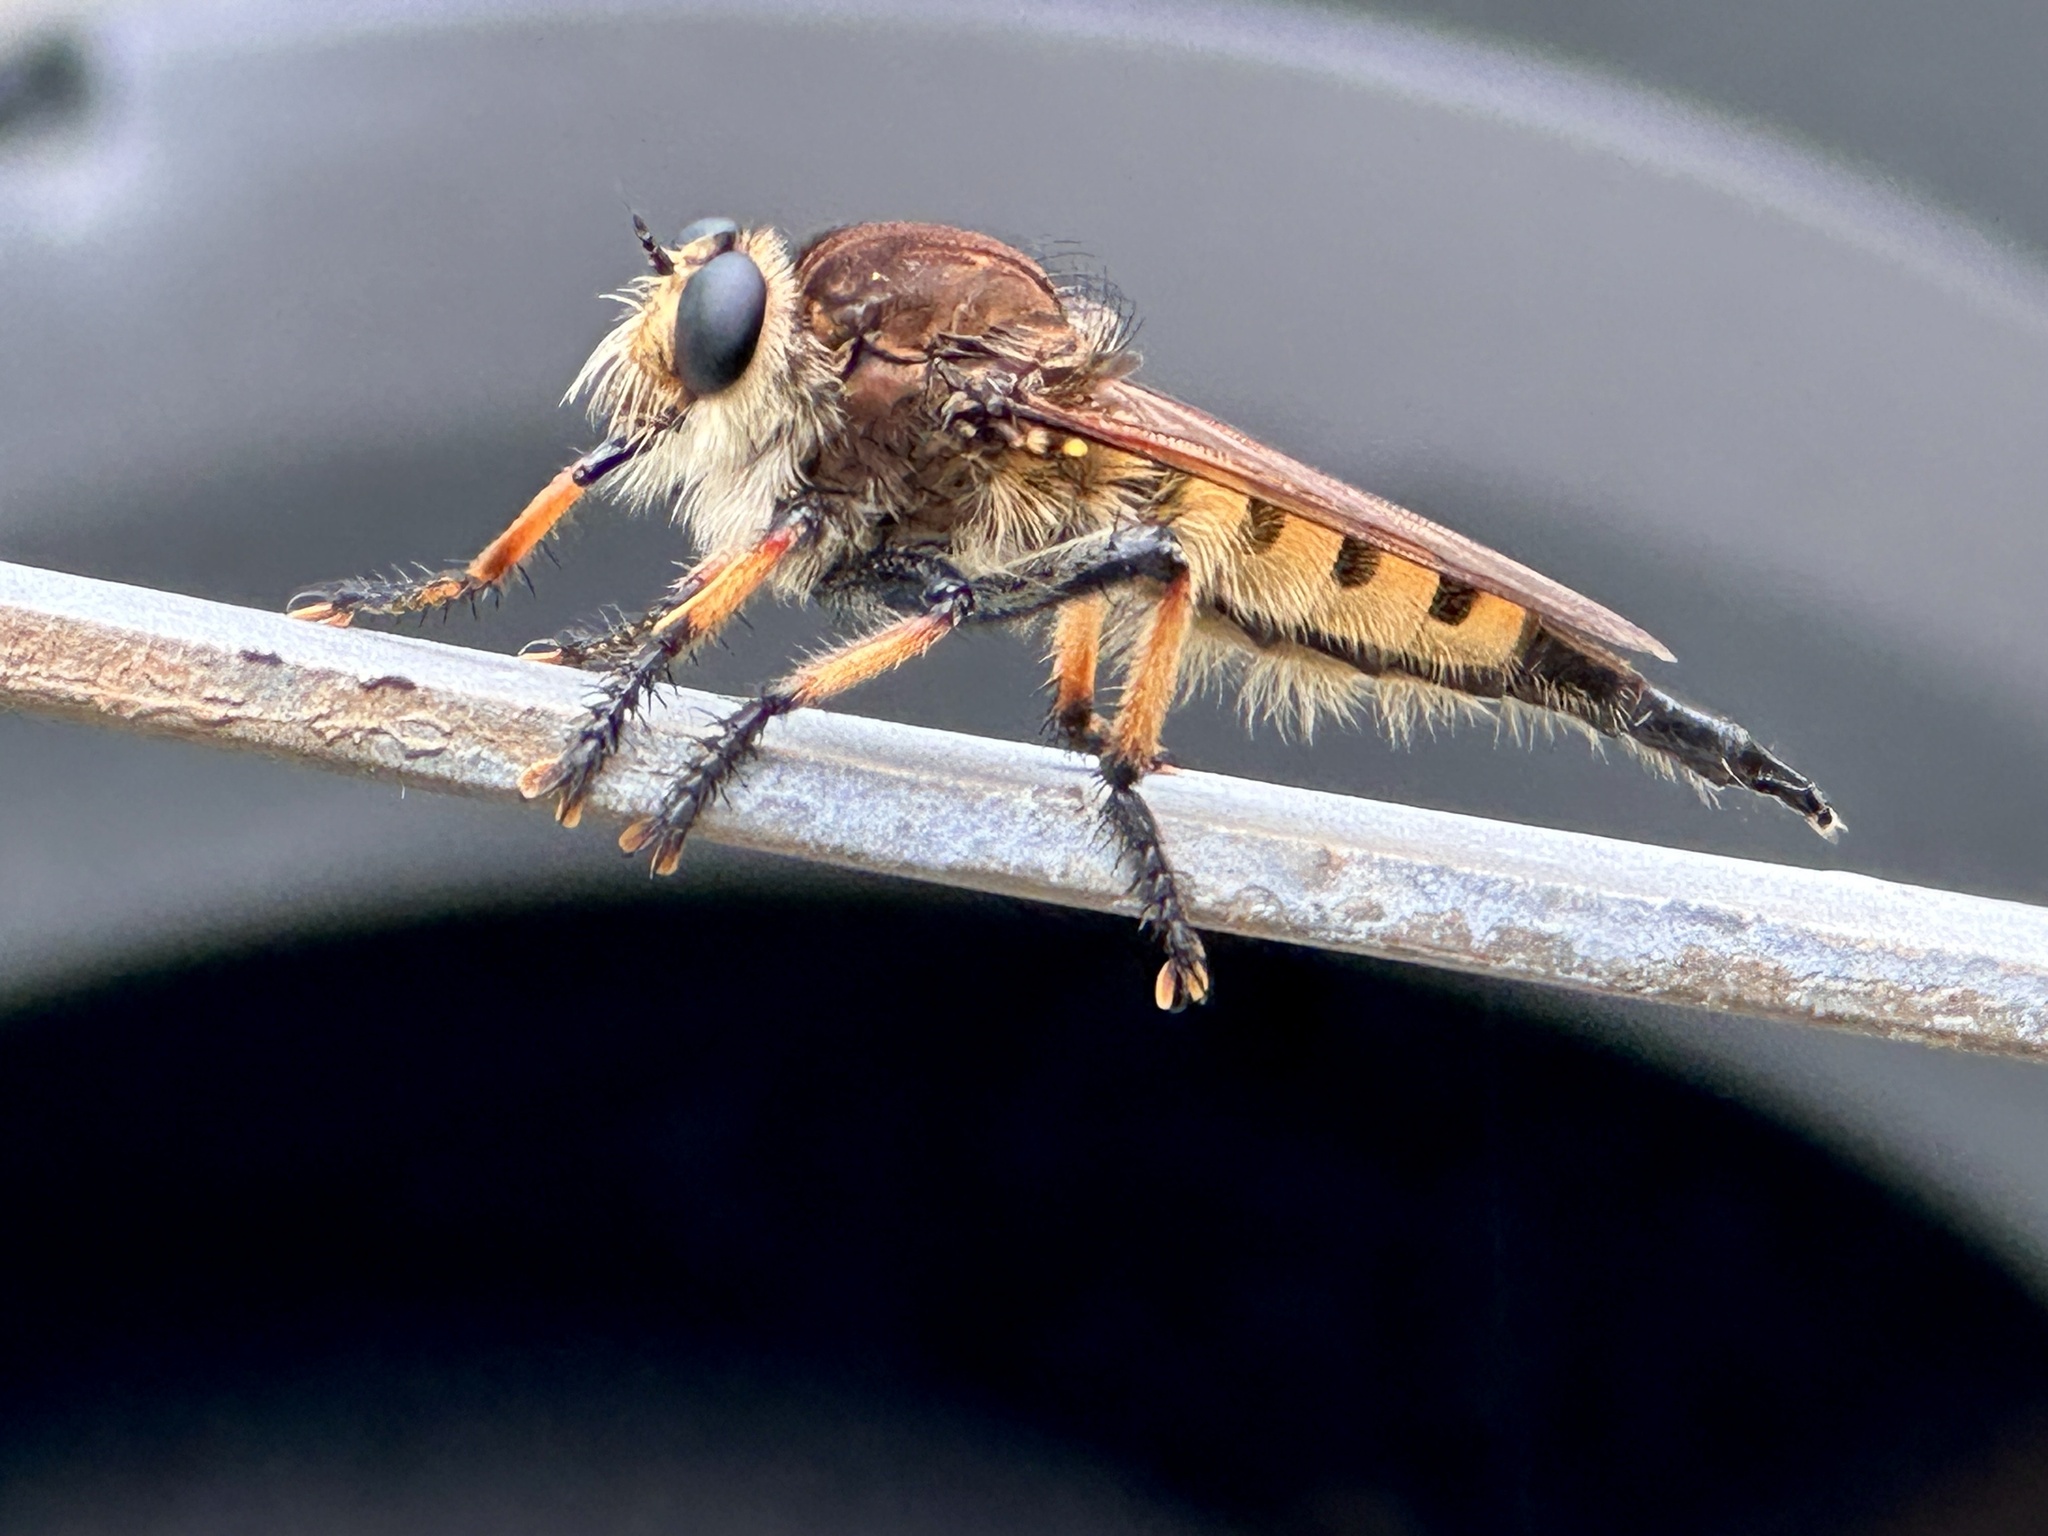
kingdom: Animalia
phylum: Arthropoda
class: Insecta
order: Diptera
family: Asilidae
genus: Promachus
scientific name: Promachus rufipes
